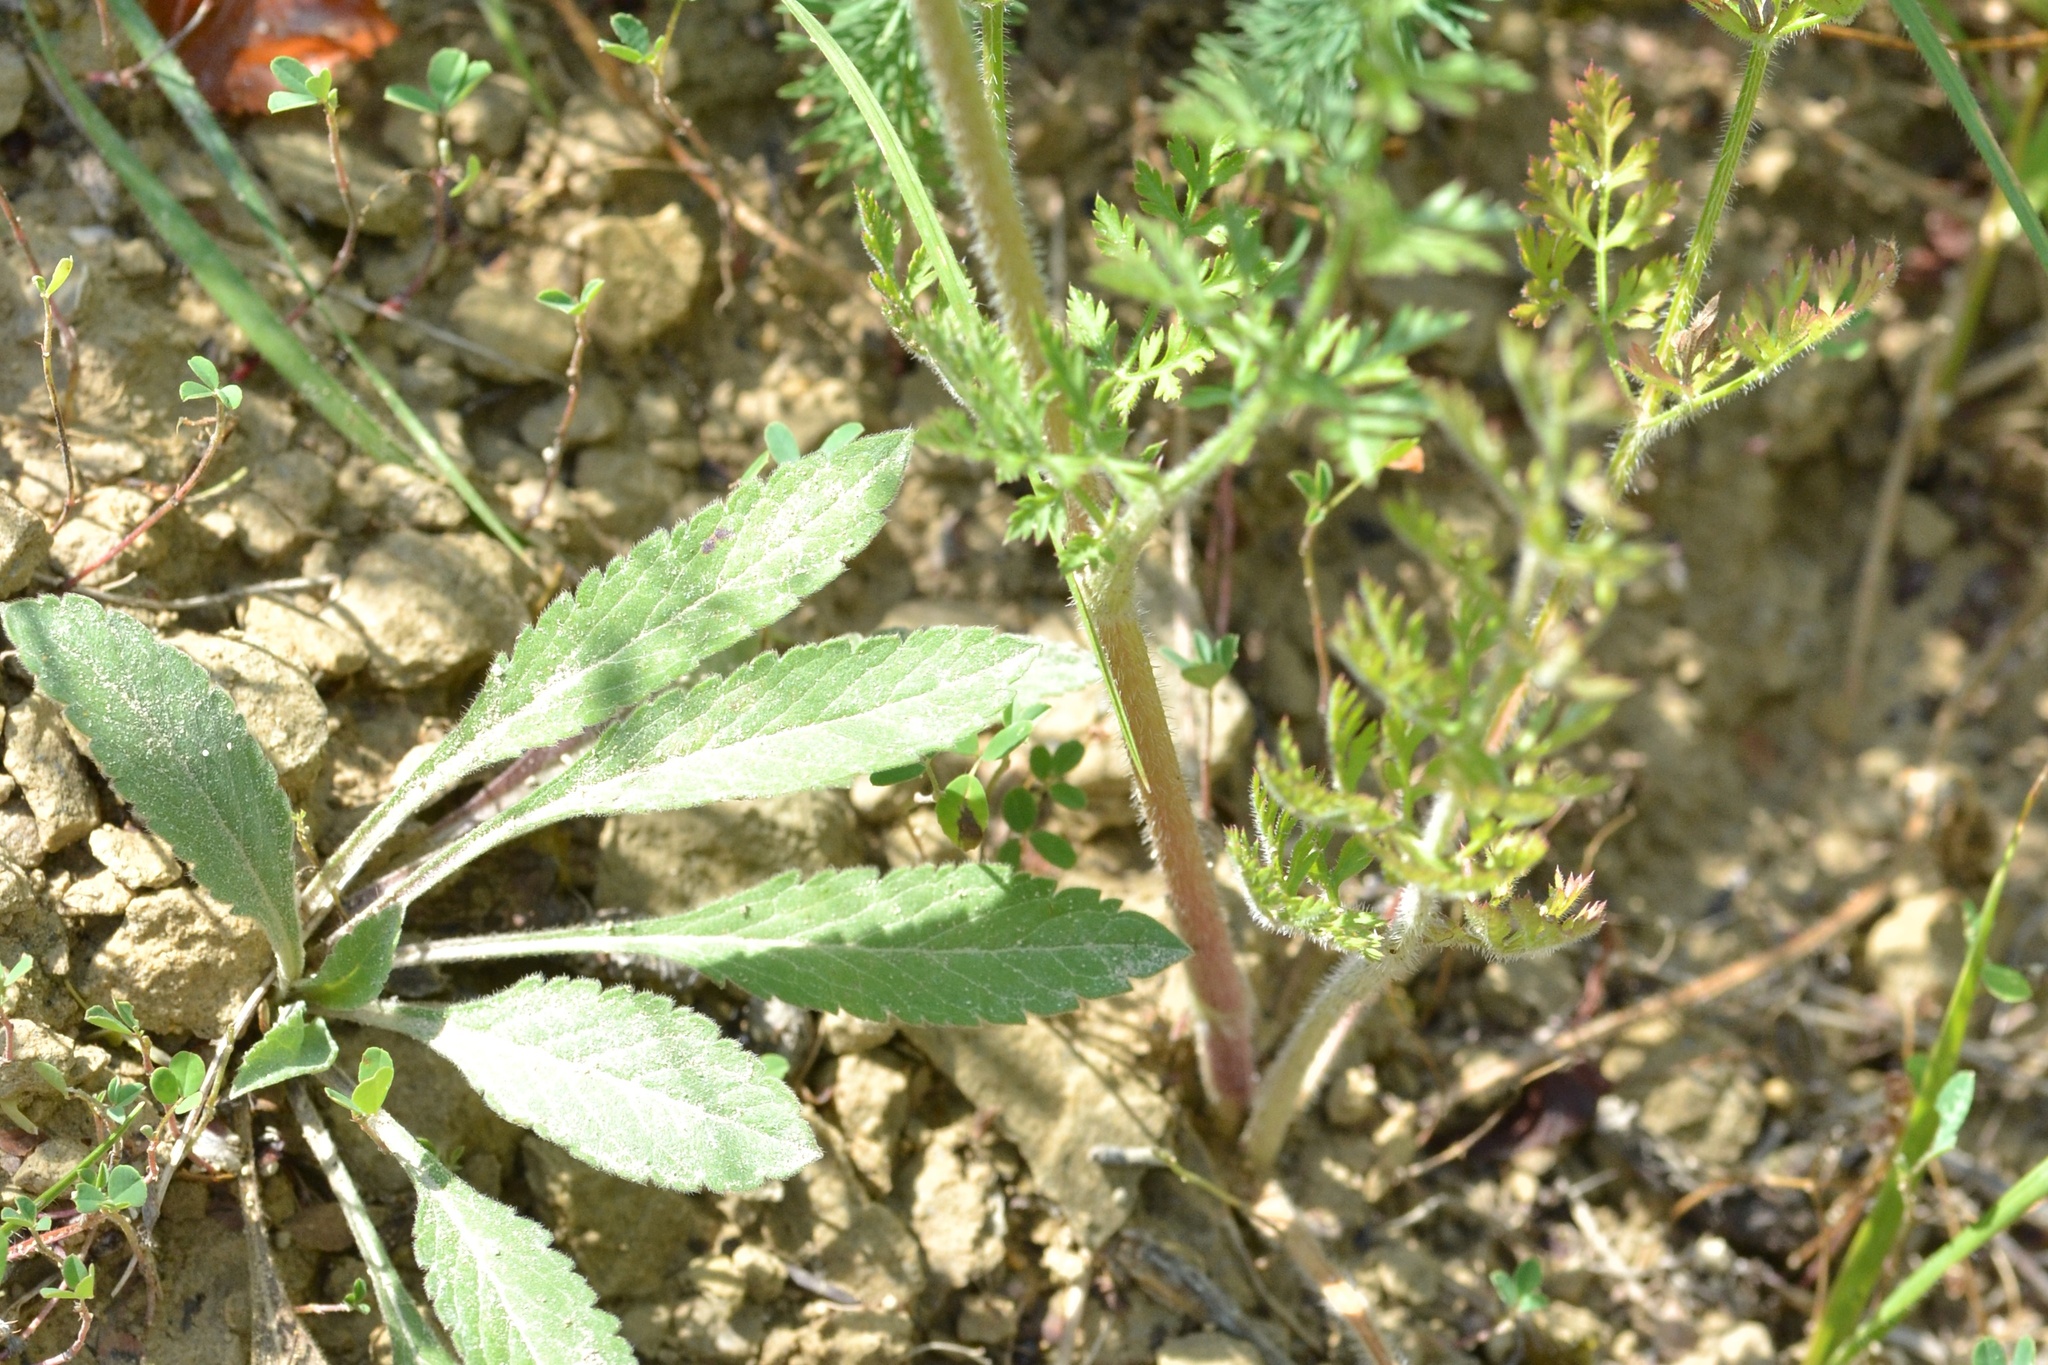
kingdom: Plantae
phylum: Tracheophyta
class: Magnoliopsida
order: Apiales
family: Apiaceae
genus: Daucus
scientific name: Daucus carota
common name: Wild carrot
